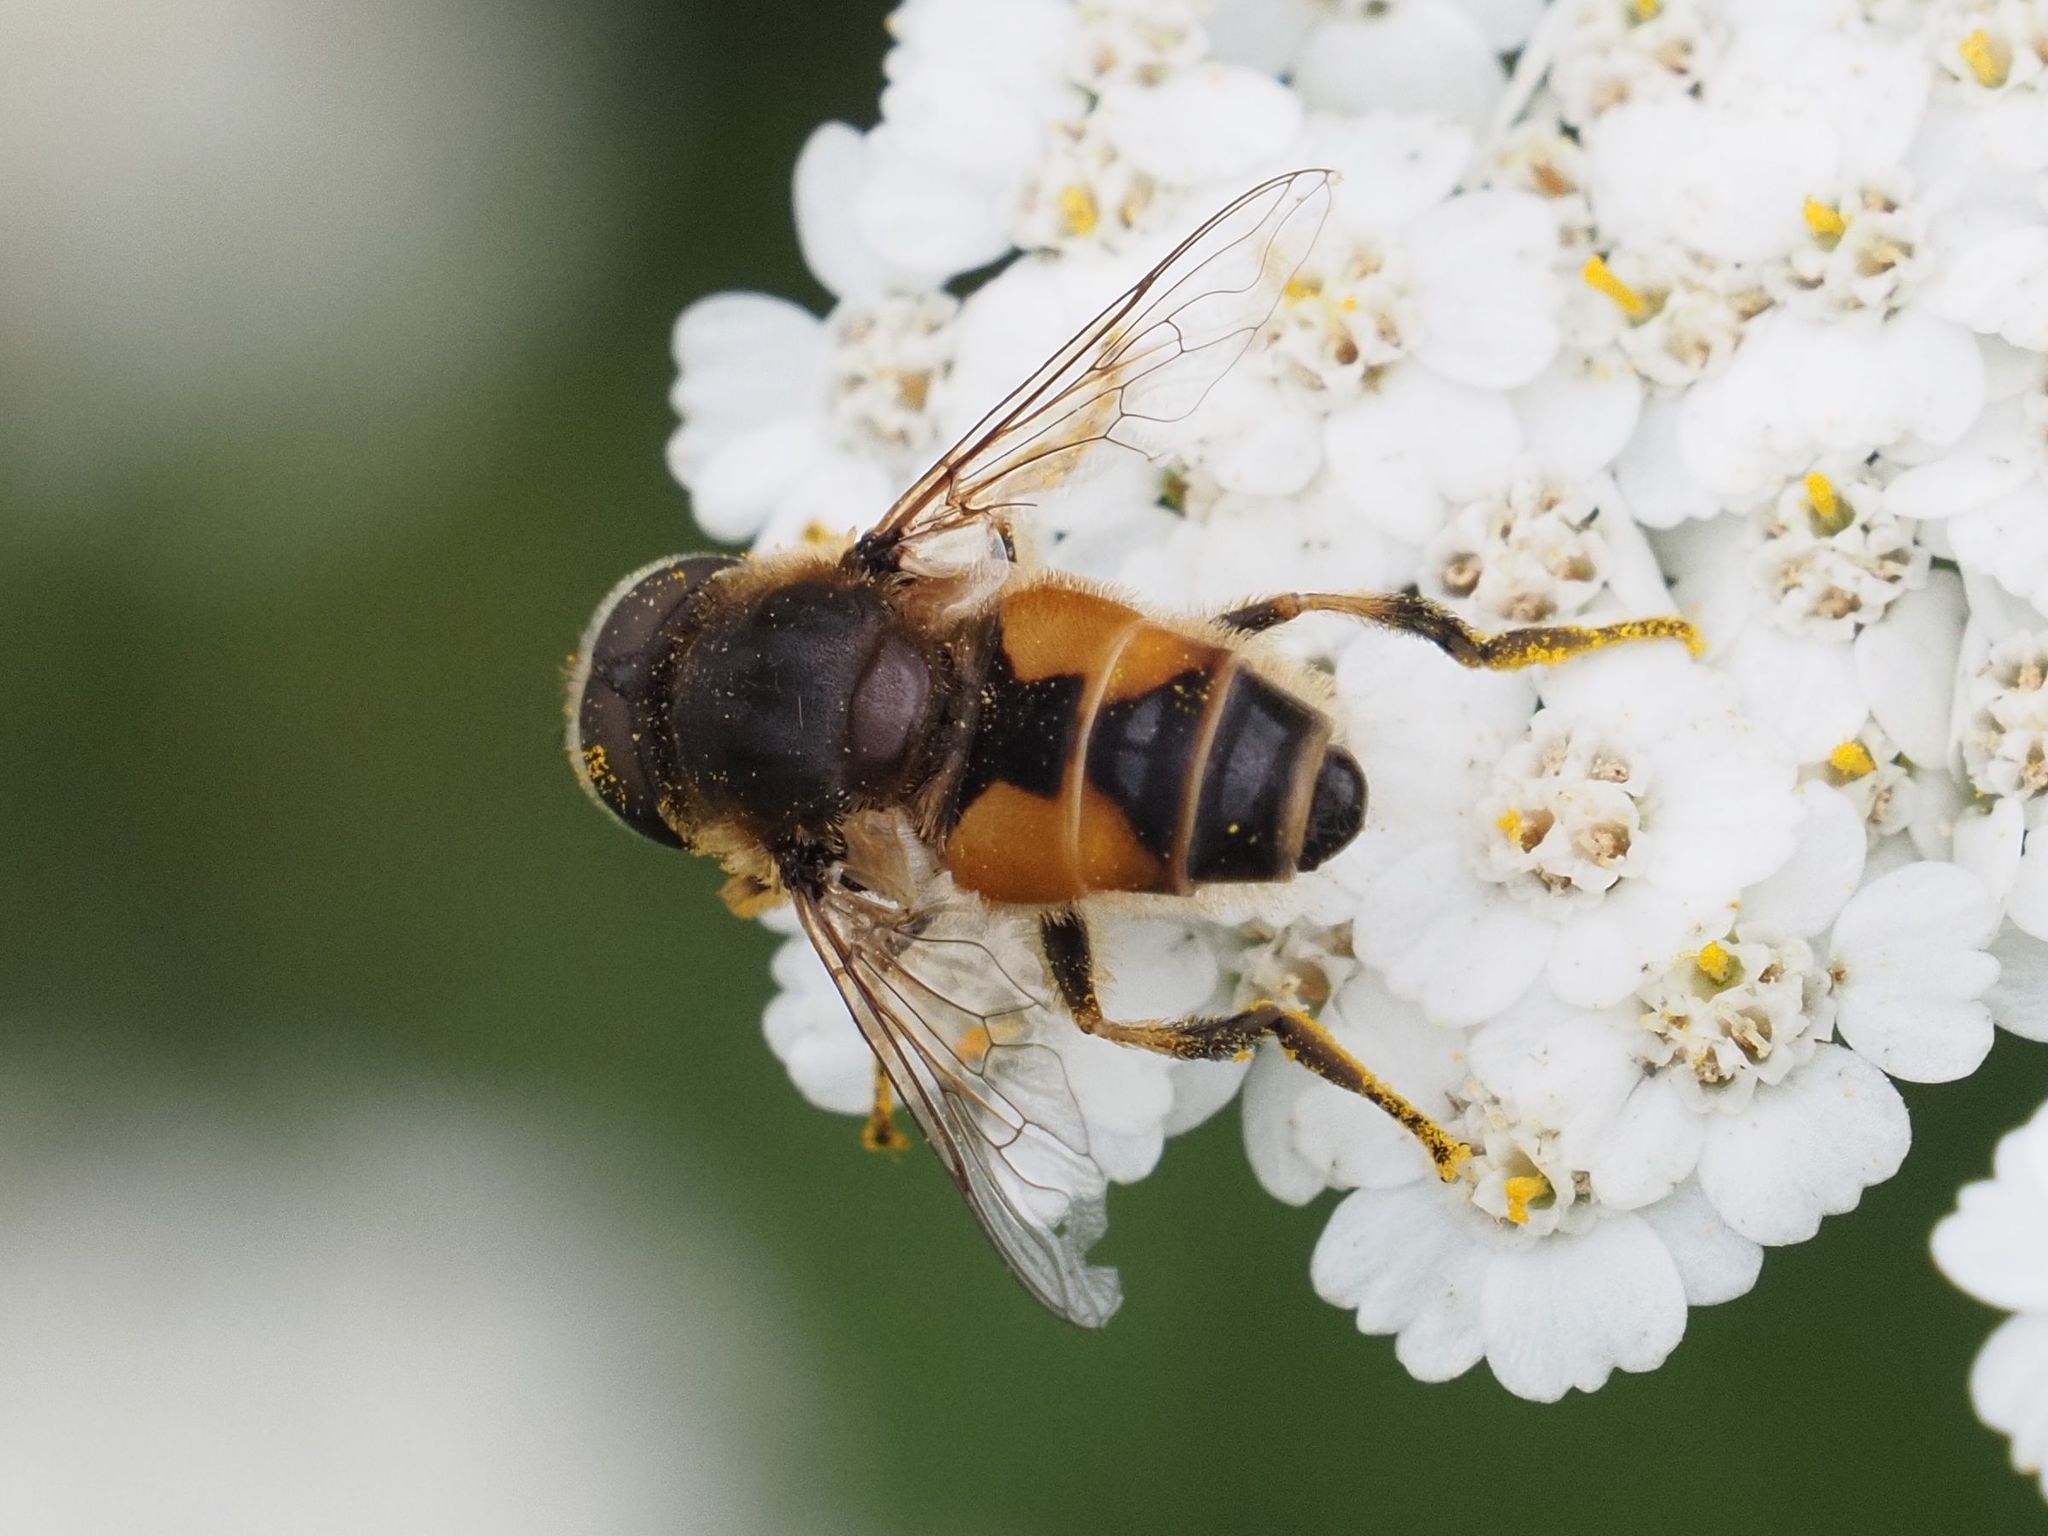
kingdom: Animalia
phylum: Arthropoda
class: Insecta
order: Diptera
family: Syrphidae
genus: Eristalis
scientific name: Eristalis arbustorum
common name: Hover fly
